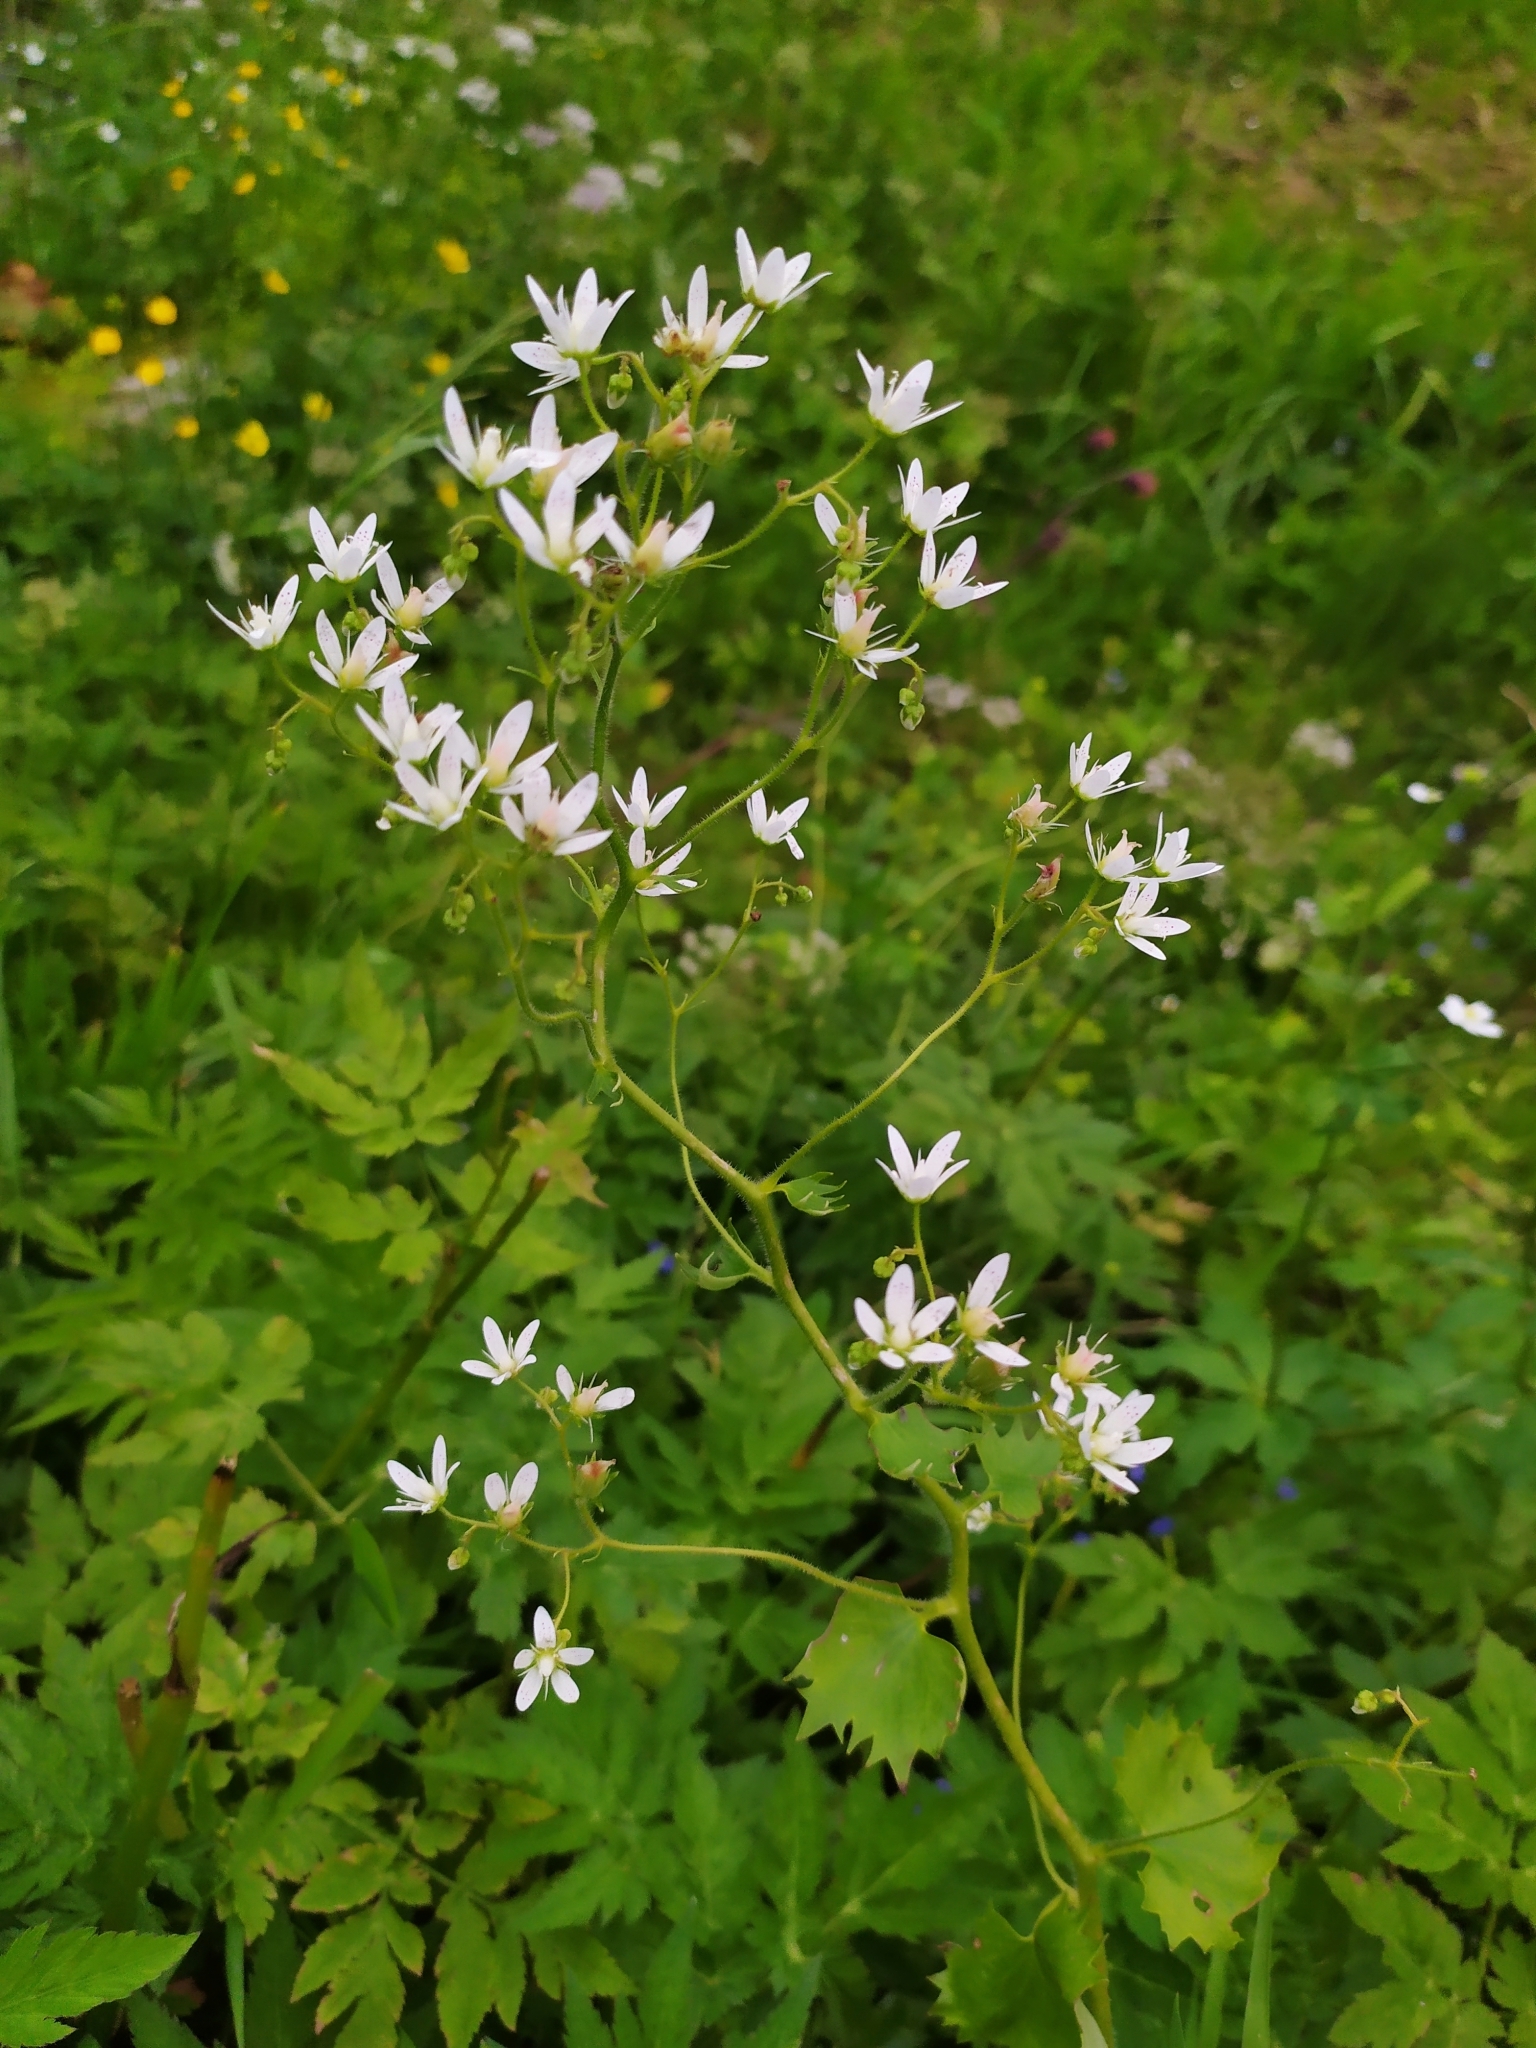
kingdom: Plantae
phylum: Tracheophyta
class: Magnoliopsida
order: Saxifragales
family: Saxifragaceae
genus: Saxifraga
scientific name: Saxifraga rotundifolia
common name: Round-leaved saxifrage
